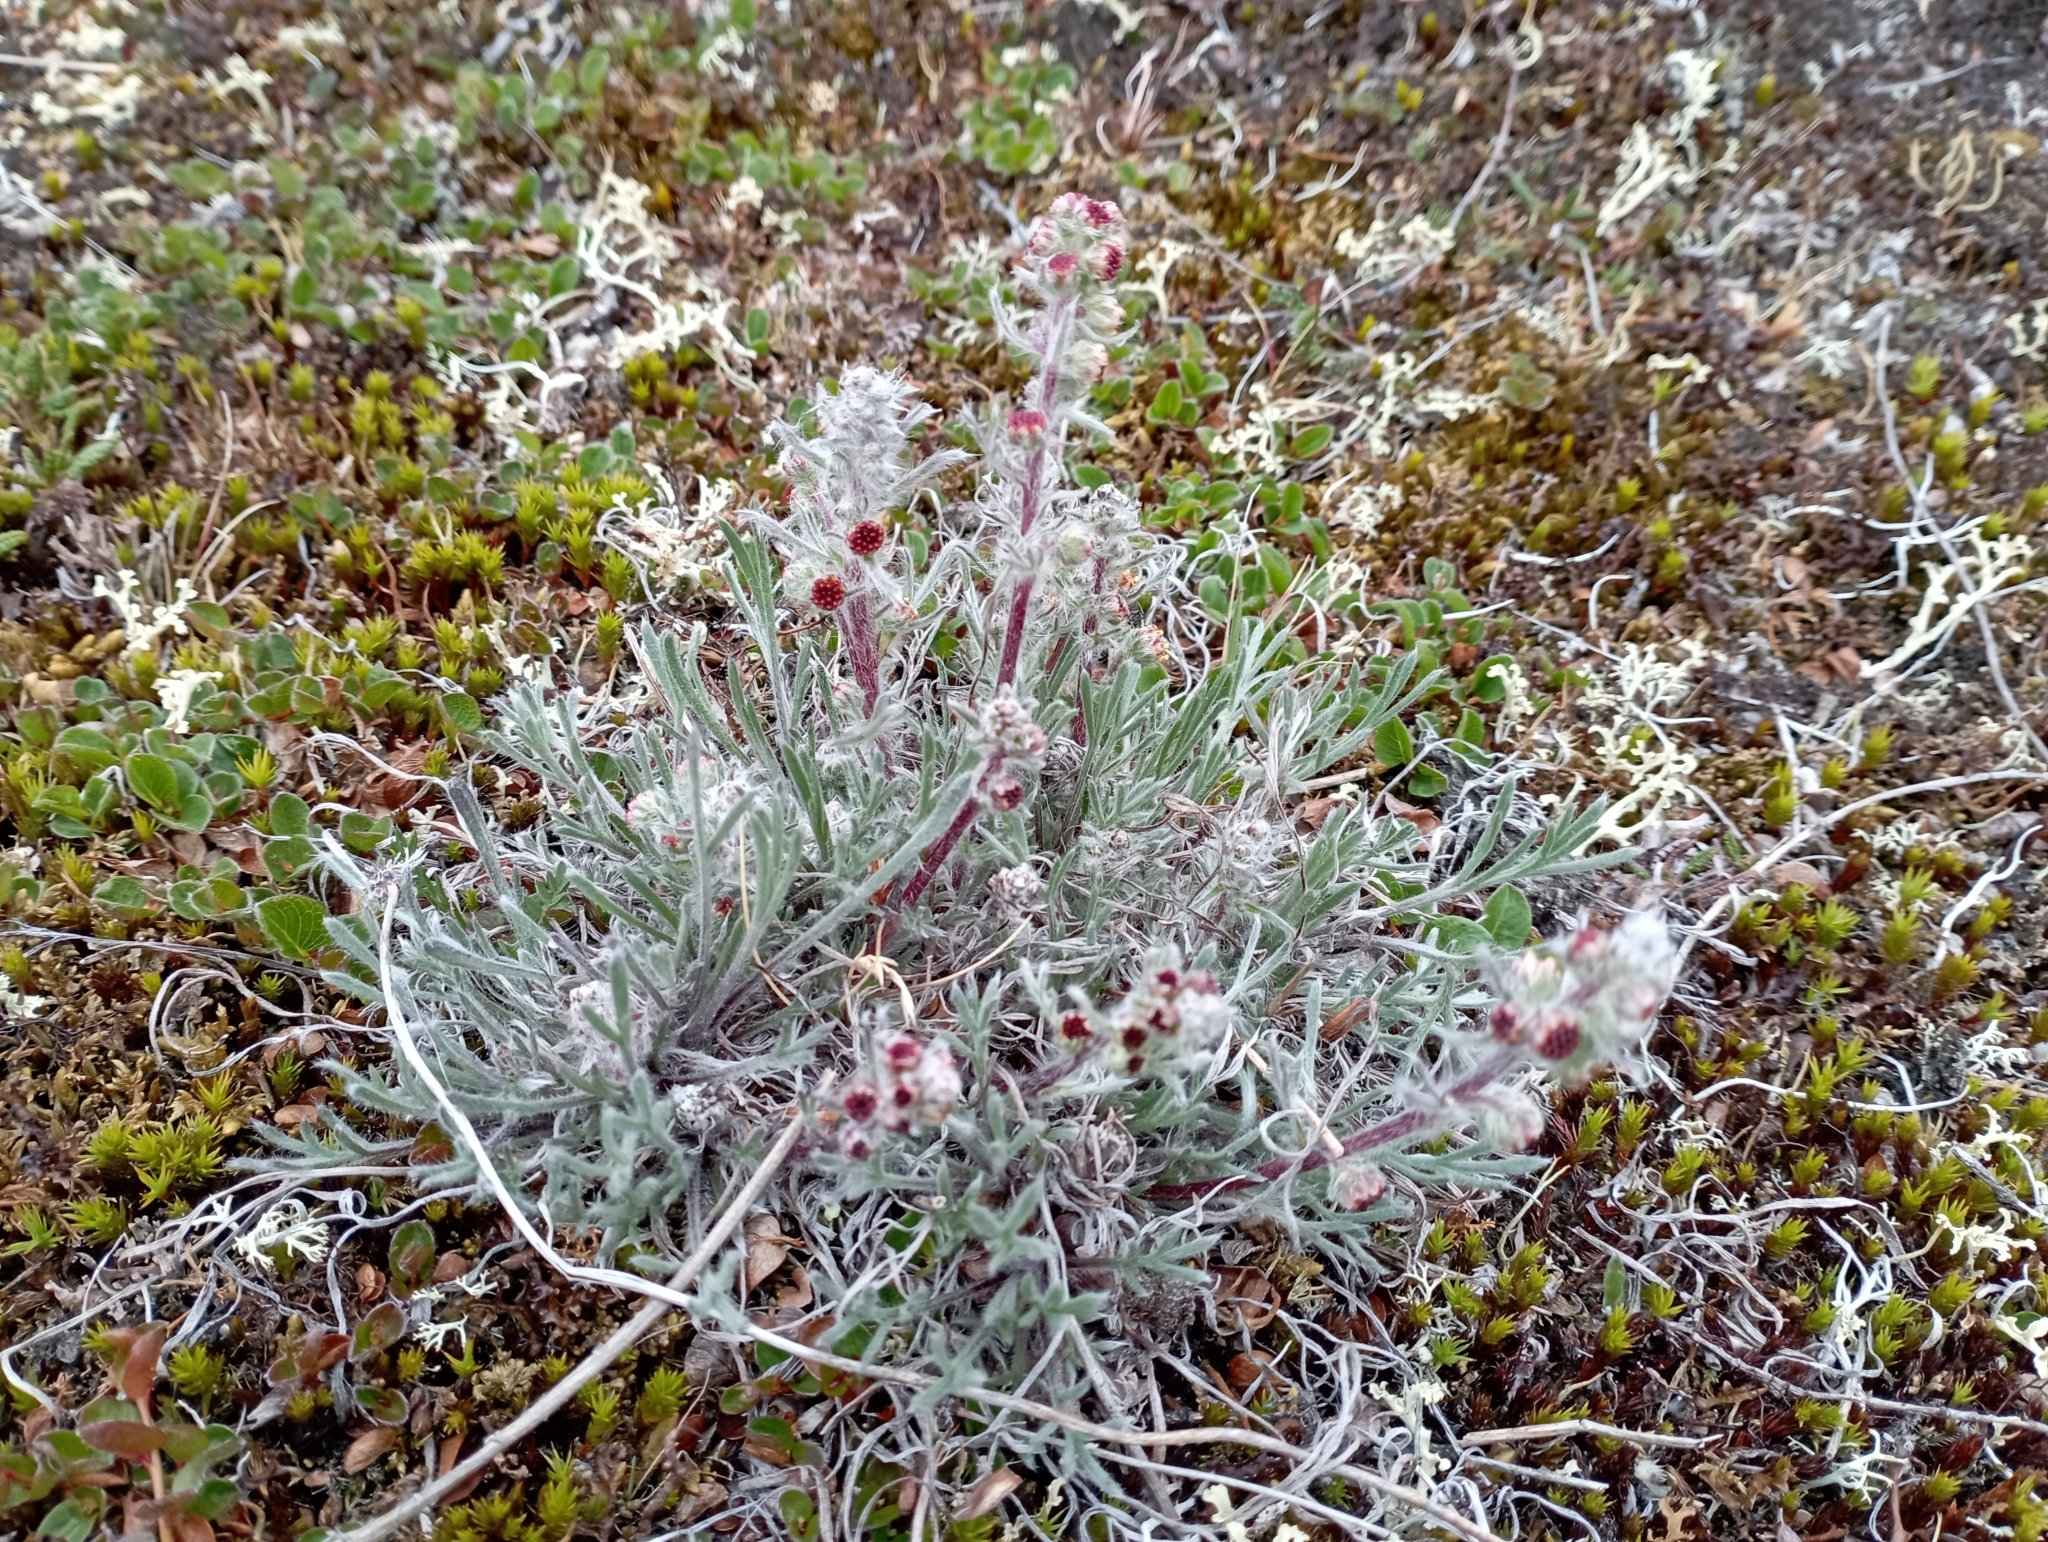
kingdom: Plantae
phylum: Tracheophyta
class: Magnoliopsida
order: Asterales
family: Asteraceae
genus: Artemisia
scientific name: Artemisia borealis
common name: Boreal sage
